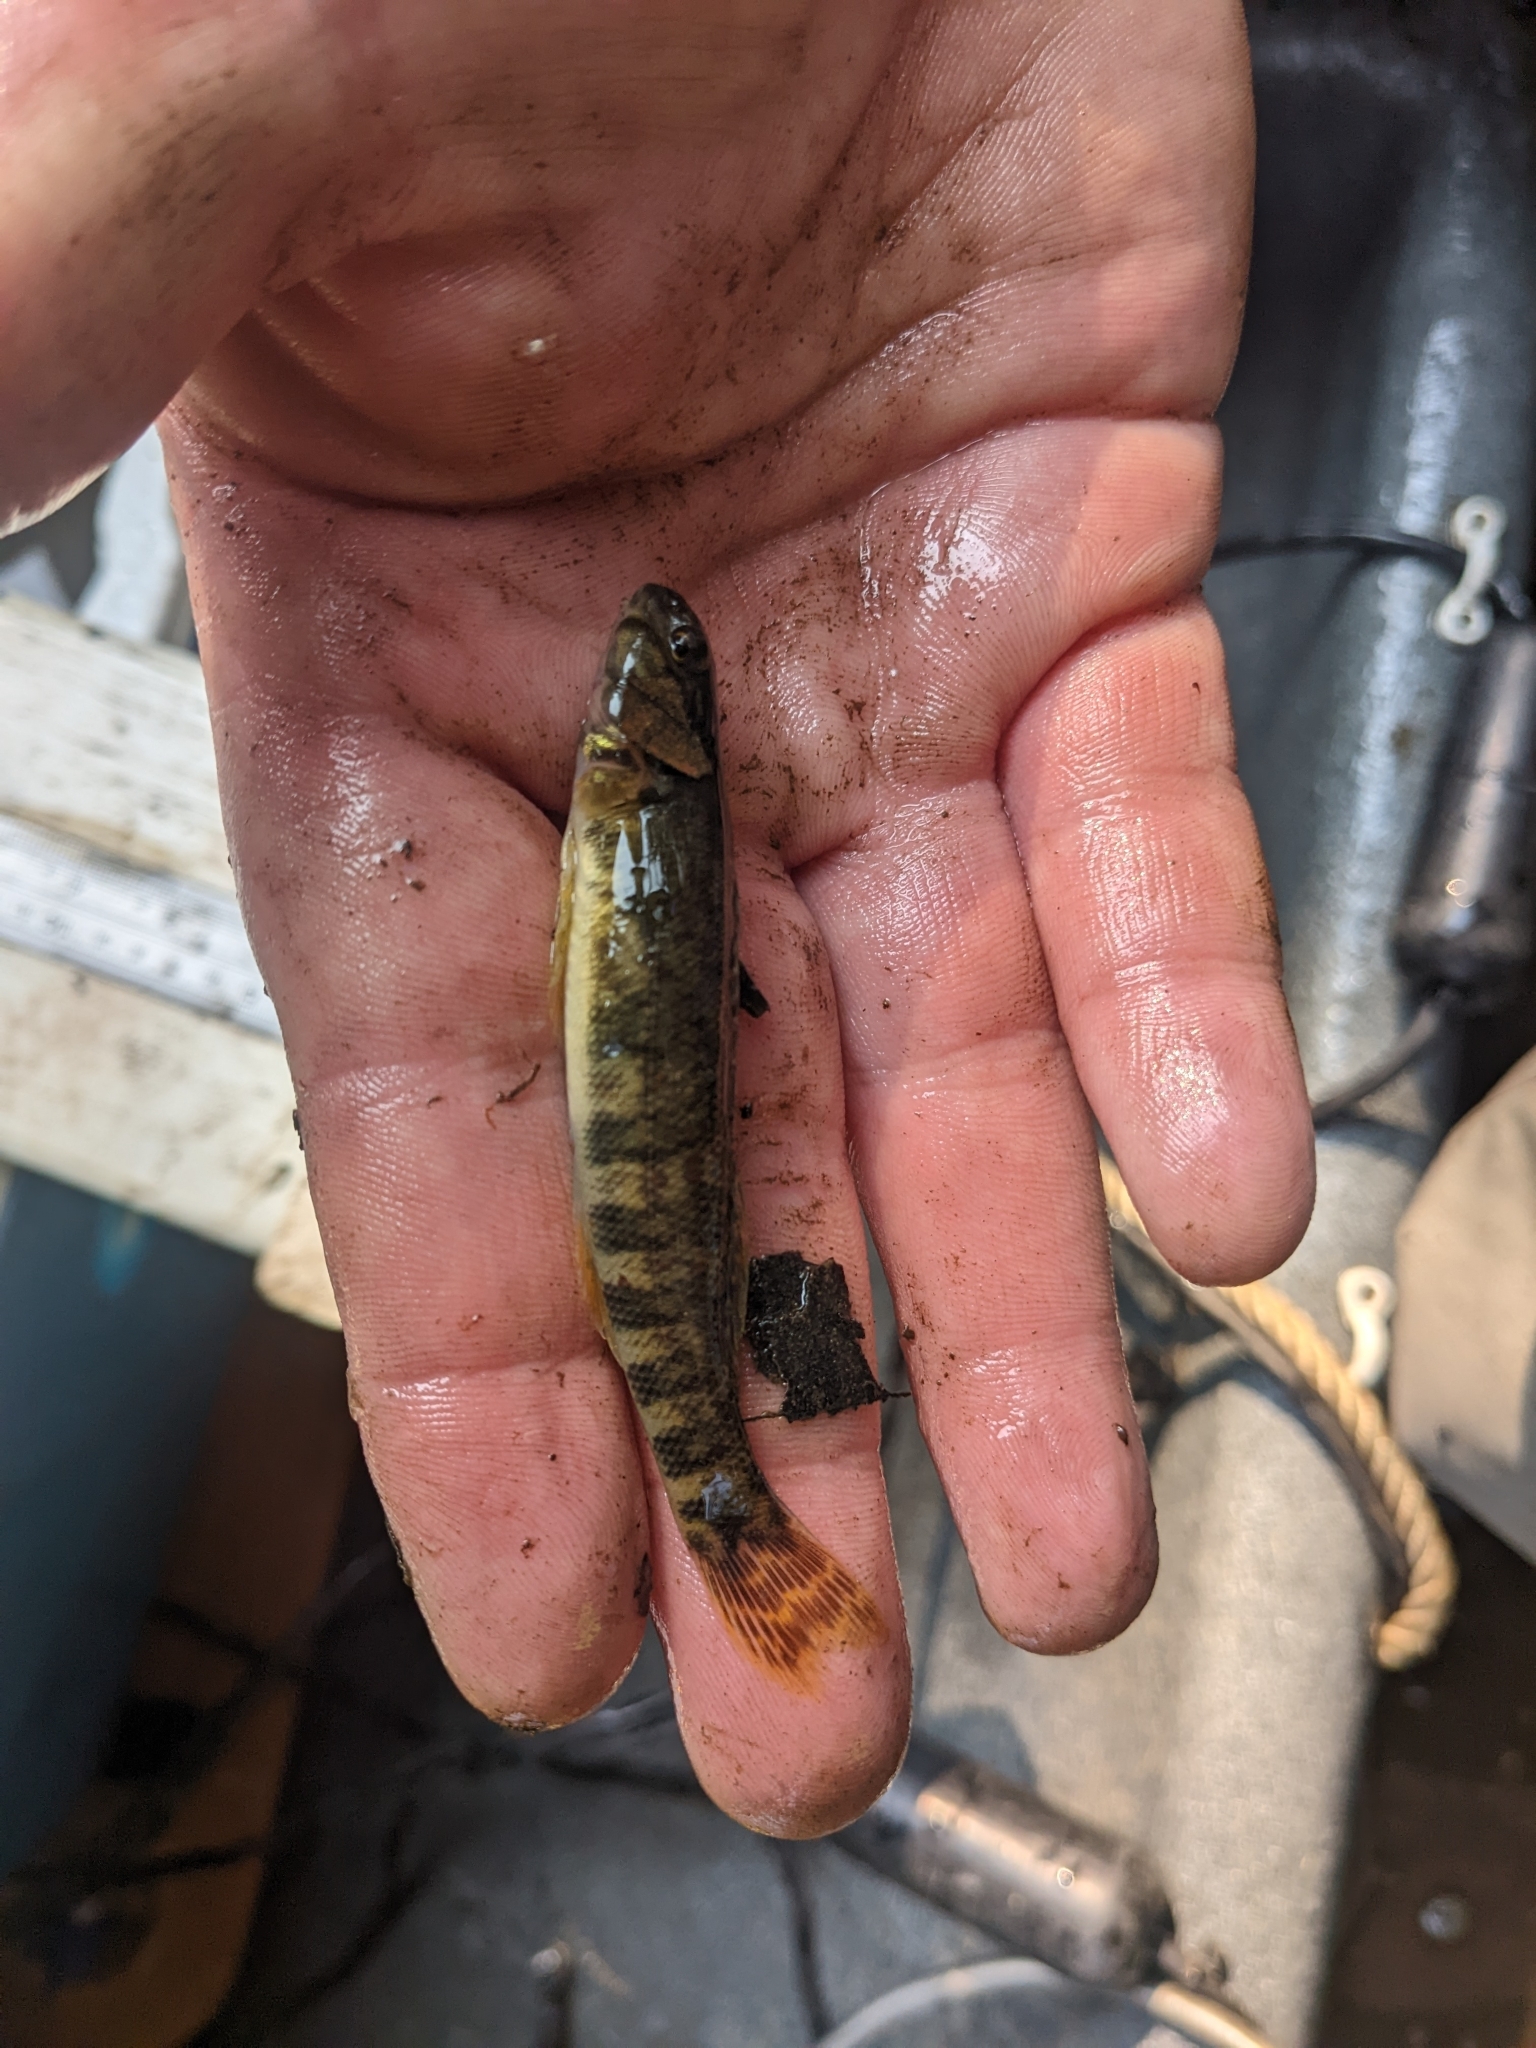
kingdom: Animalia
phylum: Chordata
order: Perciformes
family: Percidae
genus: Etheostoma
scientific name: Etheostoma blennioides
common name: Greenside darter
